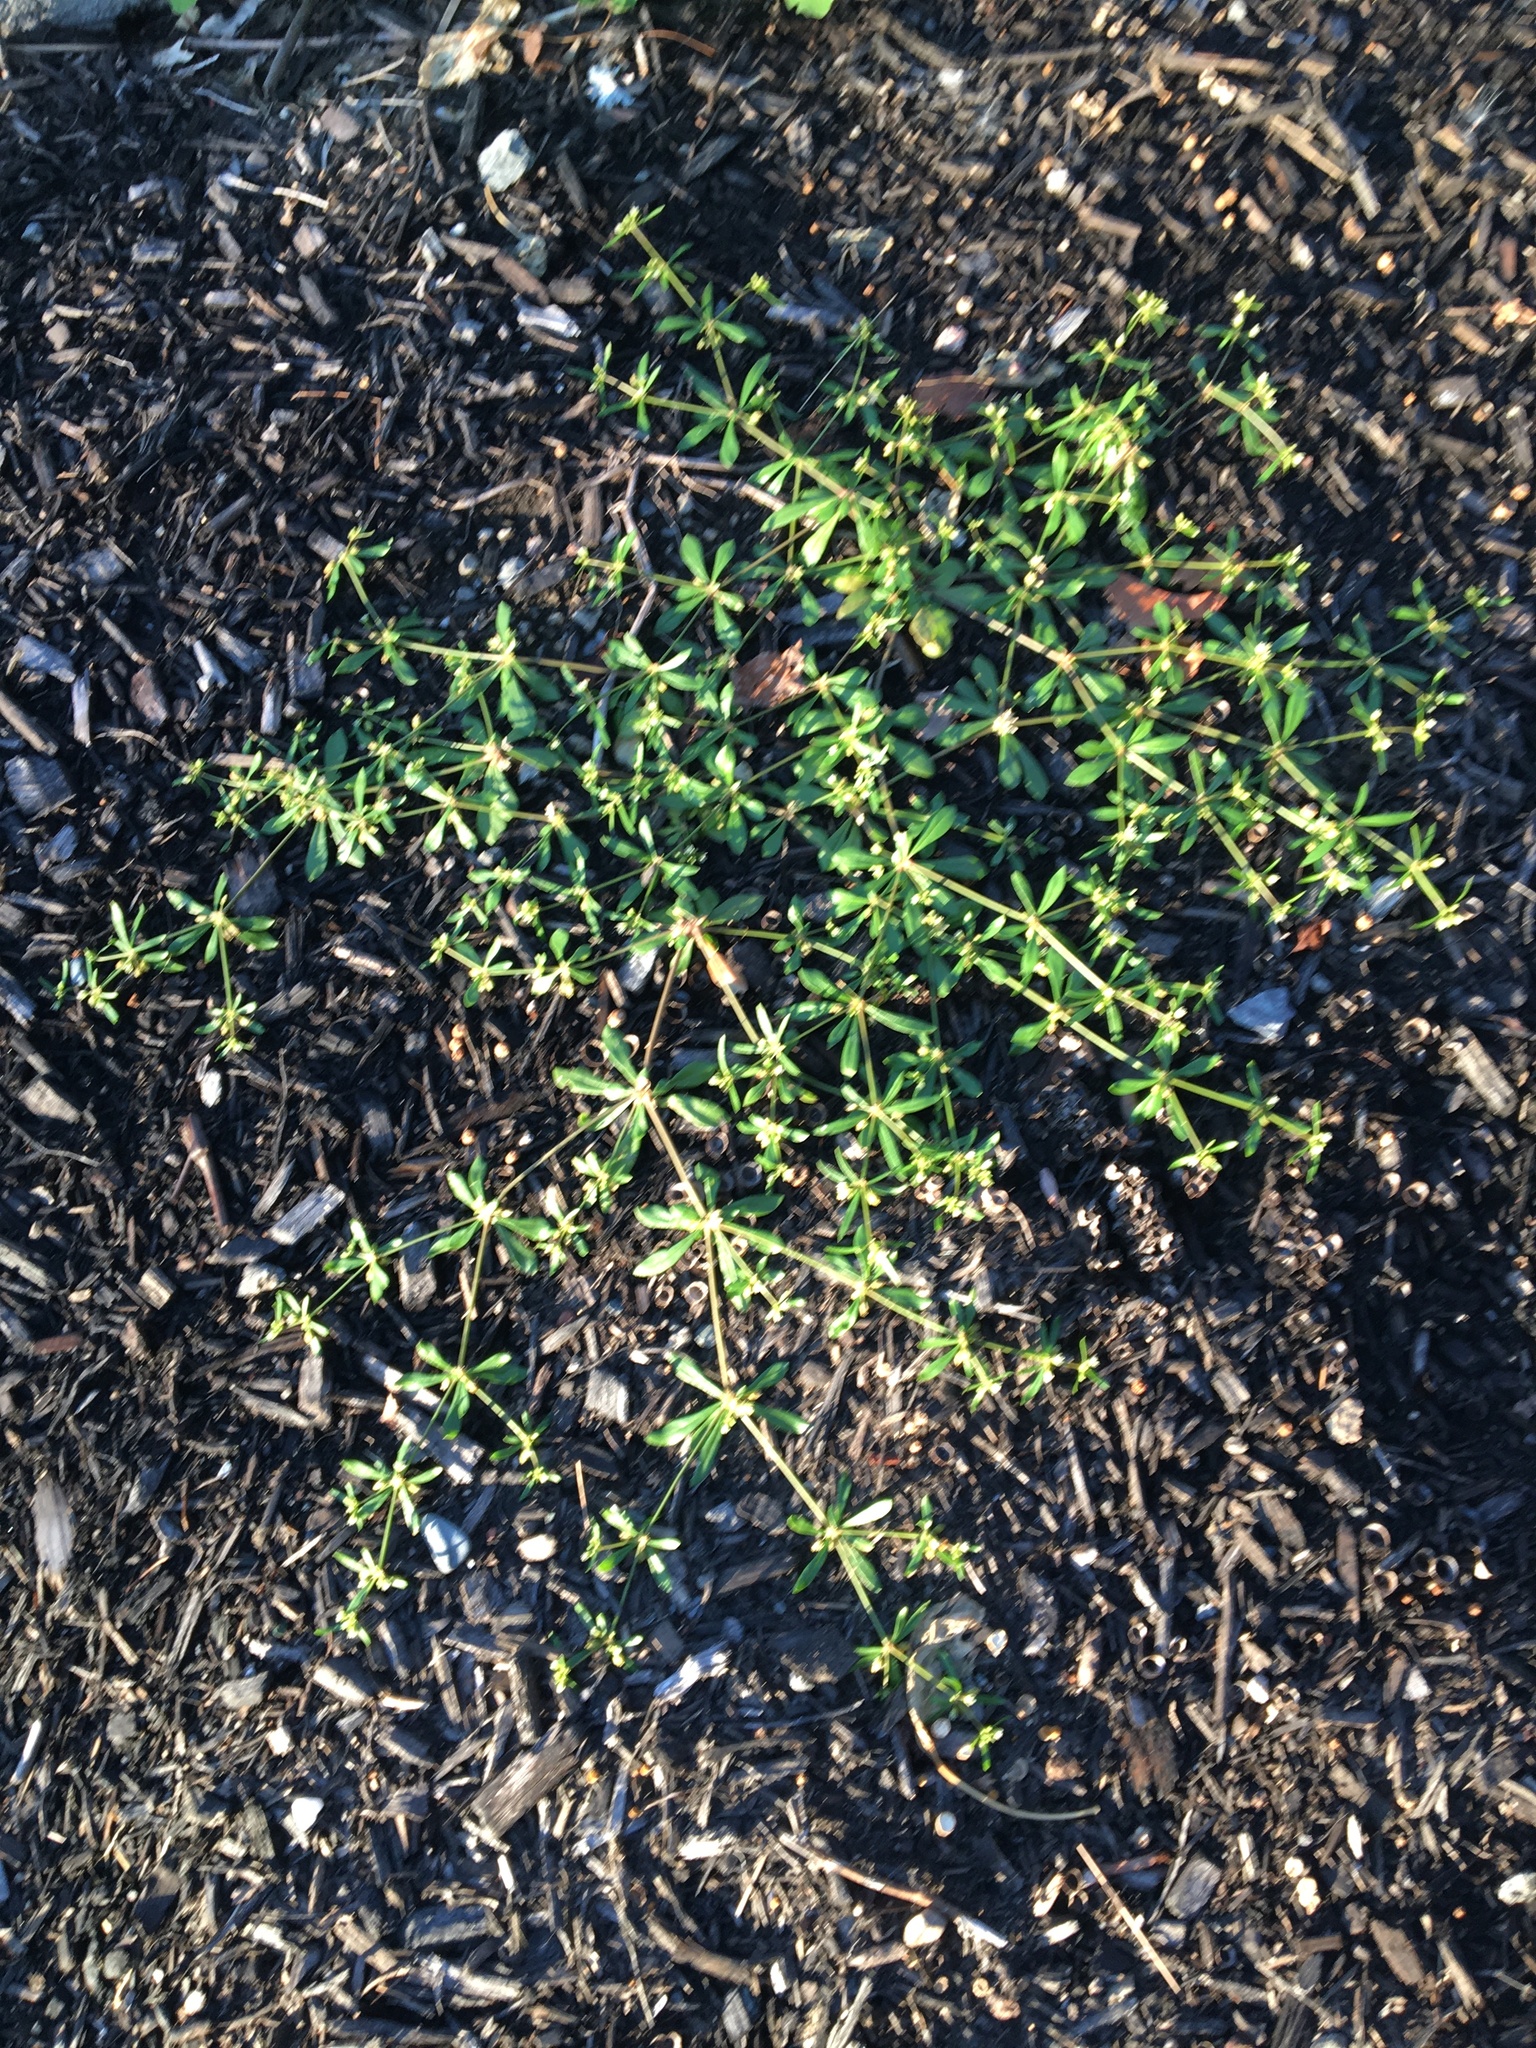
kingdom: Plantae
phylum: Tracheophyta
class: Magnoliopsida
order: Caryophyllales
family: Molluginaceae
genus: Mollugo
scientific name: Mollugo verticillata
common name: Green carpetweed
